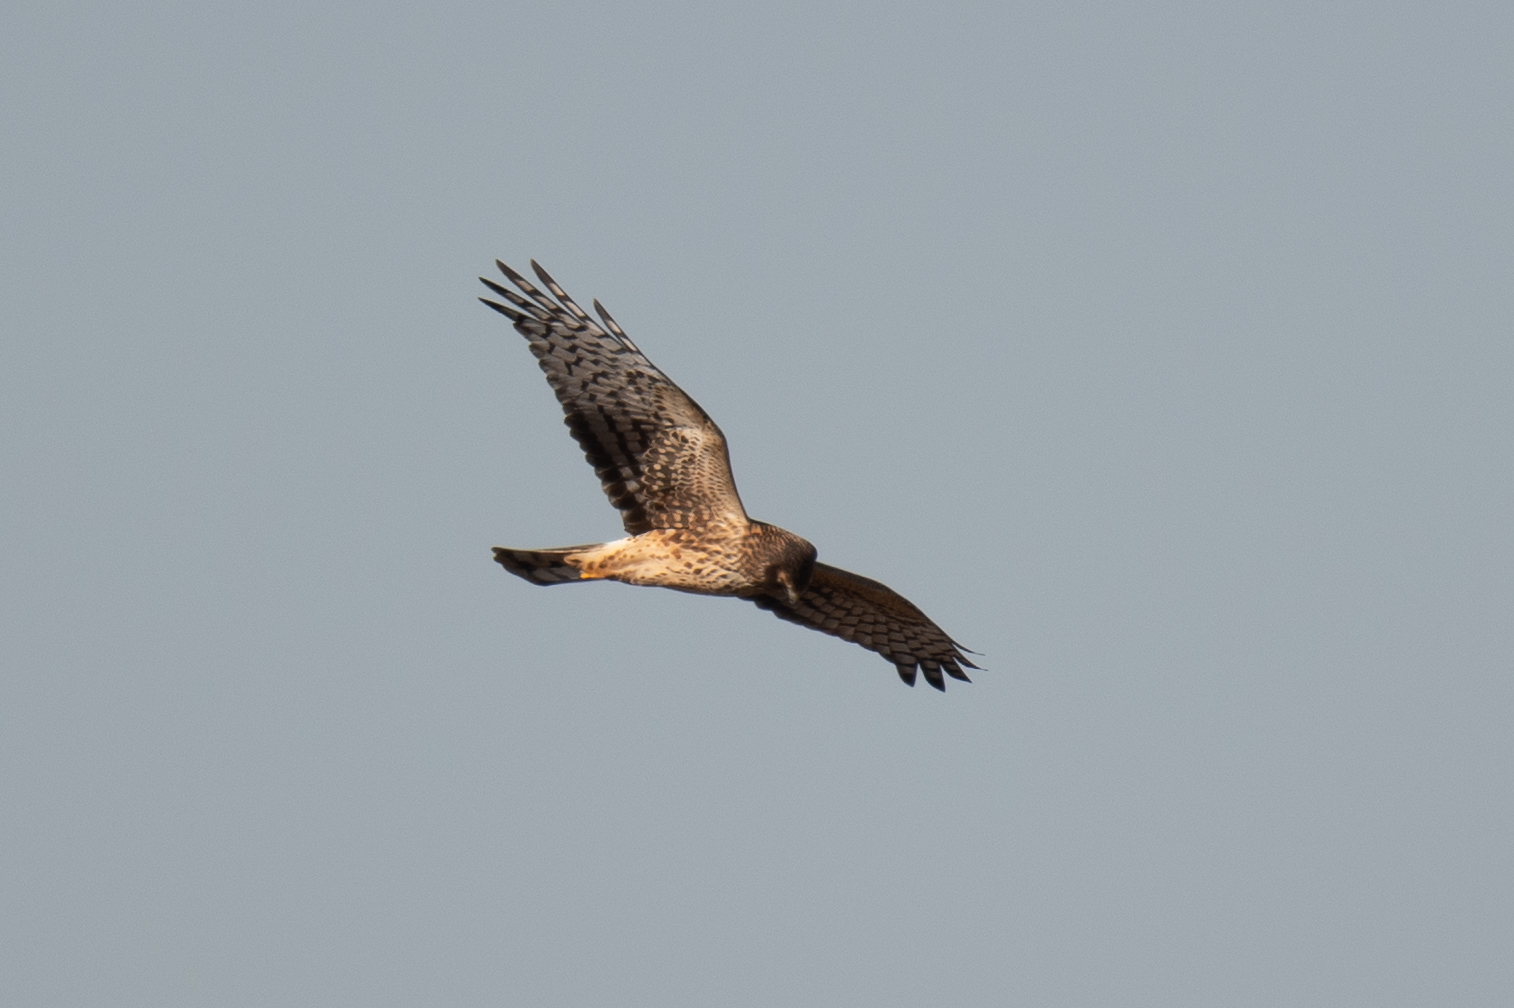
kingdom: Animalia
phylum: Chordata
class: Aves
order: Accipitriformes
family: Accipitridae
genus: Circus
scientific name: Circus cyaneus
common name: Hen harrier
